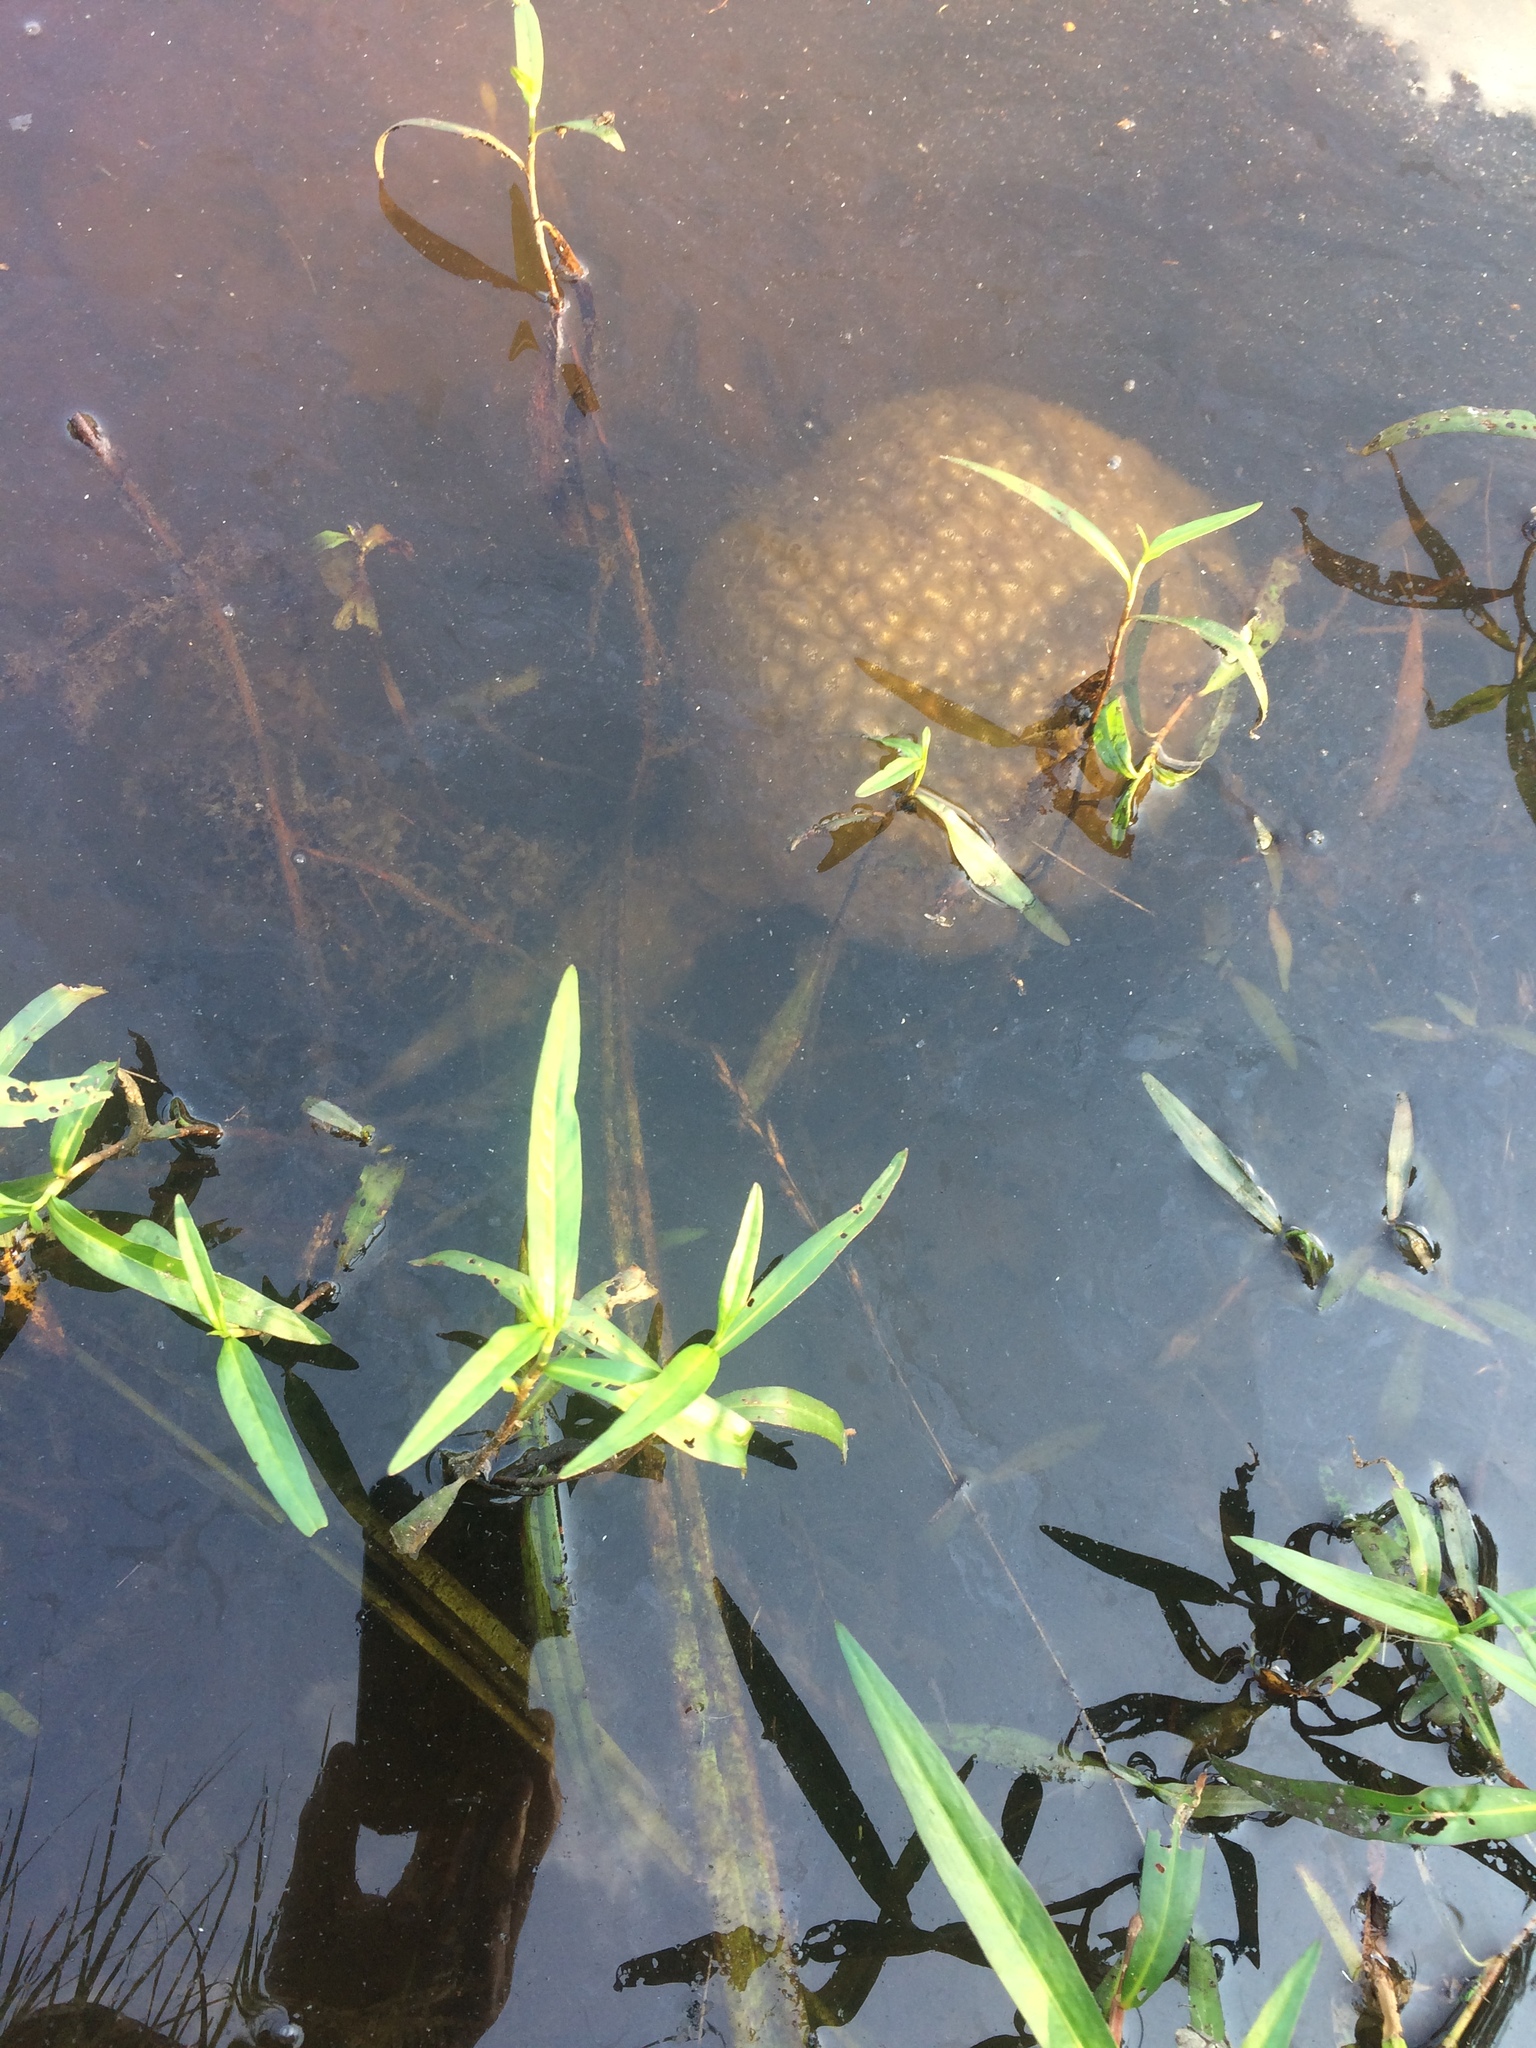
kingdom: Animalia
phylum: Bryozoa
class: Phylactolaemata
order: Plumatellida
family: Pectinatellidae
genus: Pectinatella
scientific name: Pectinatella magnifica
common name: Magnificent bryozoan
